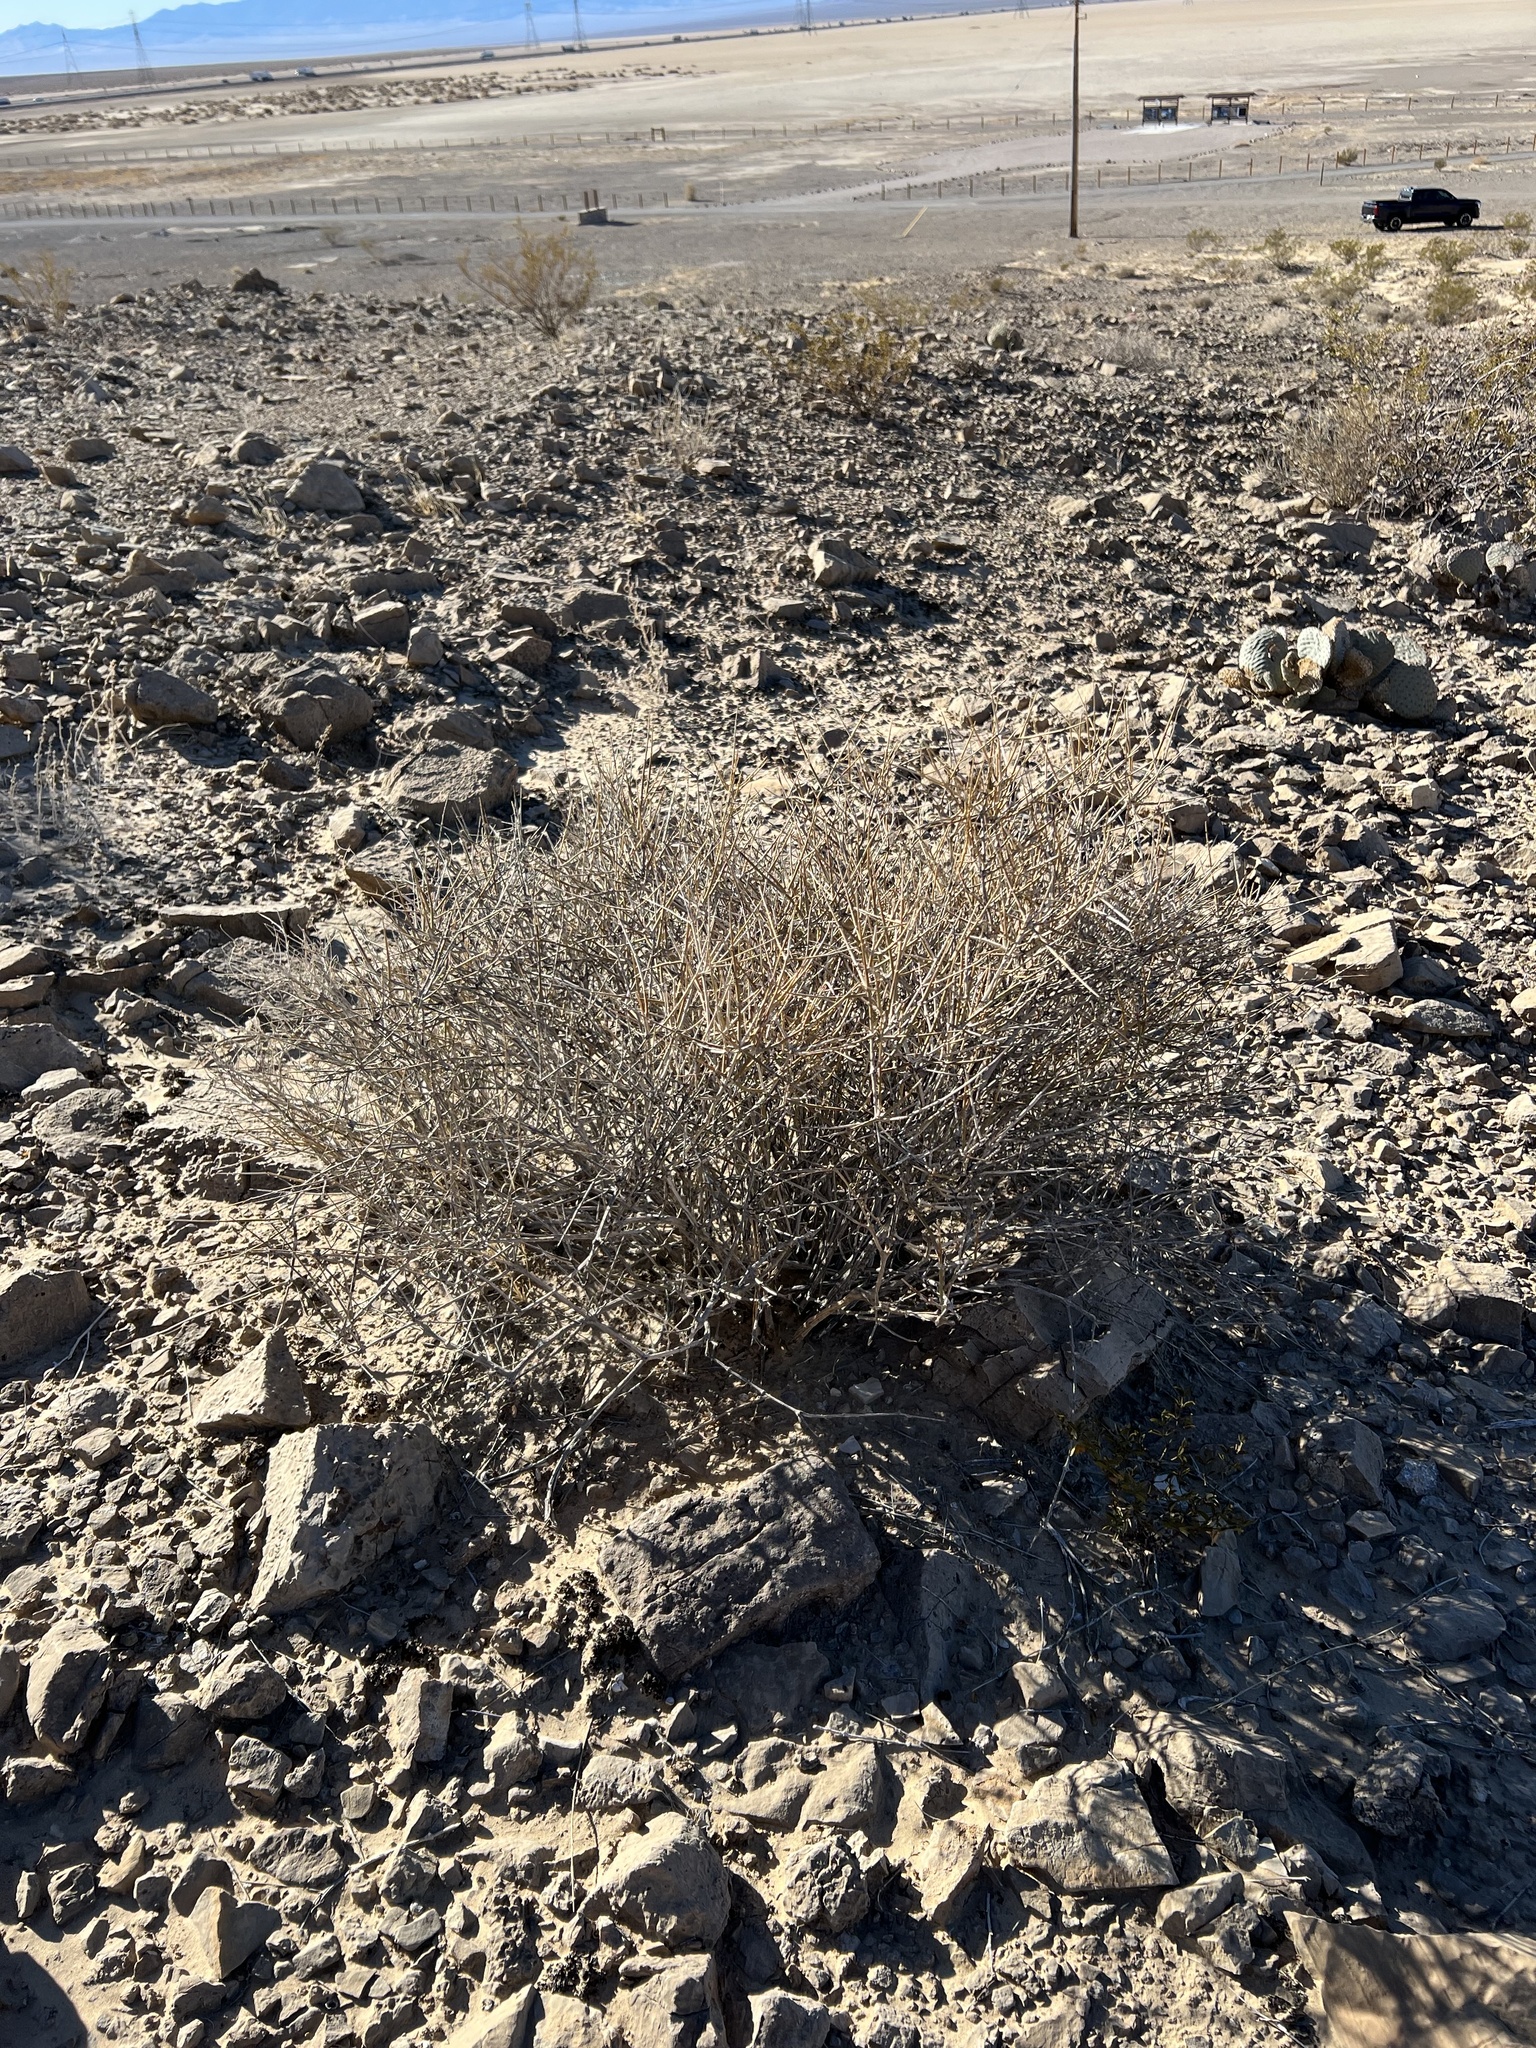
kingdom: Plantae
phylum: Tracheophyta
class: Gnetopsida
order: Ephedrales
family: Ephedraceae
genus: Ephedra
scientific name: Ephedra nevadensis
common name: Gray ephedra
